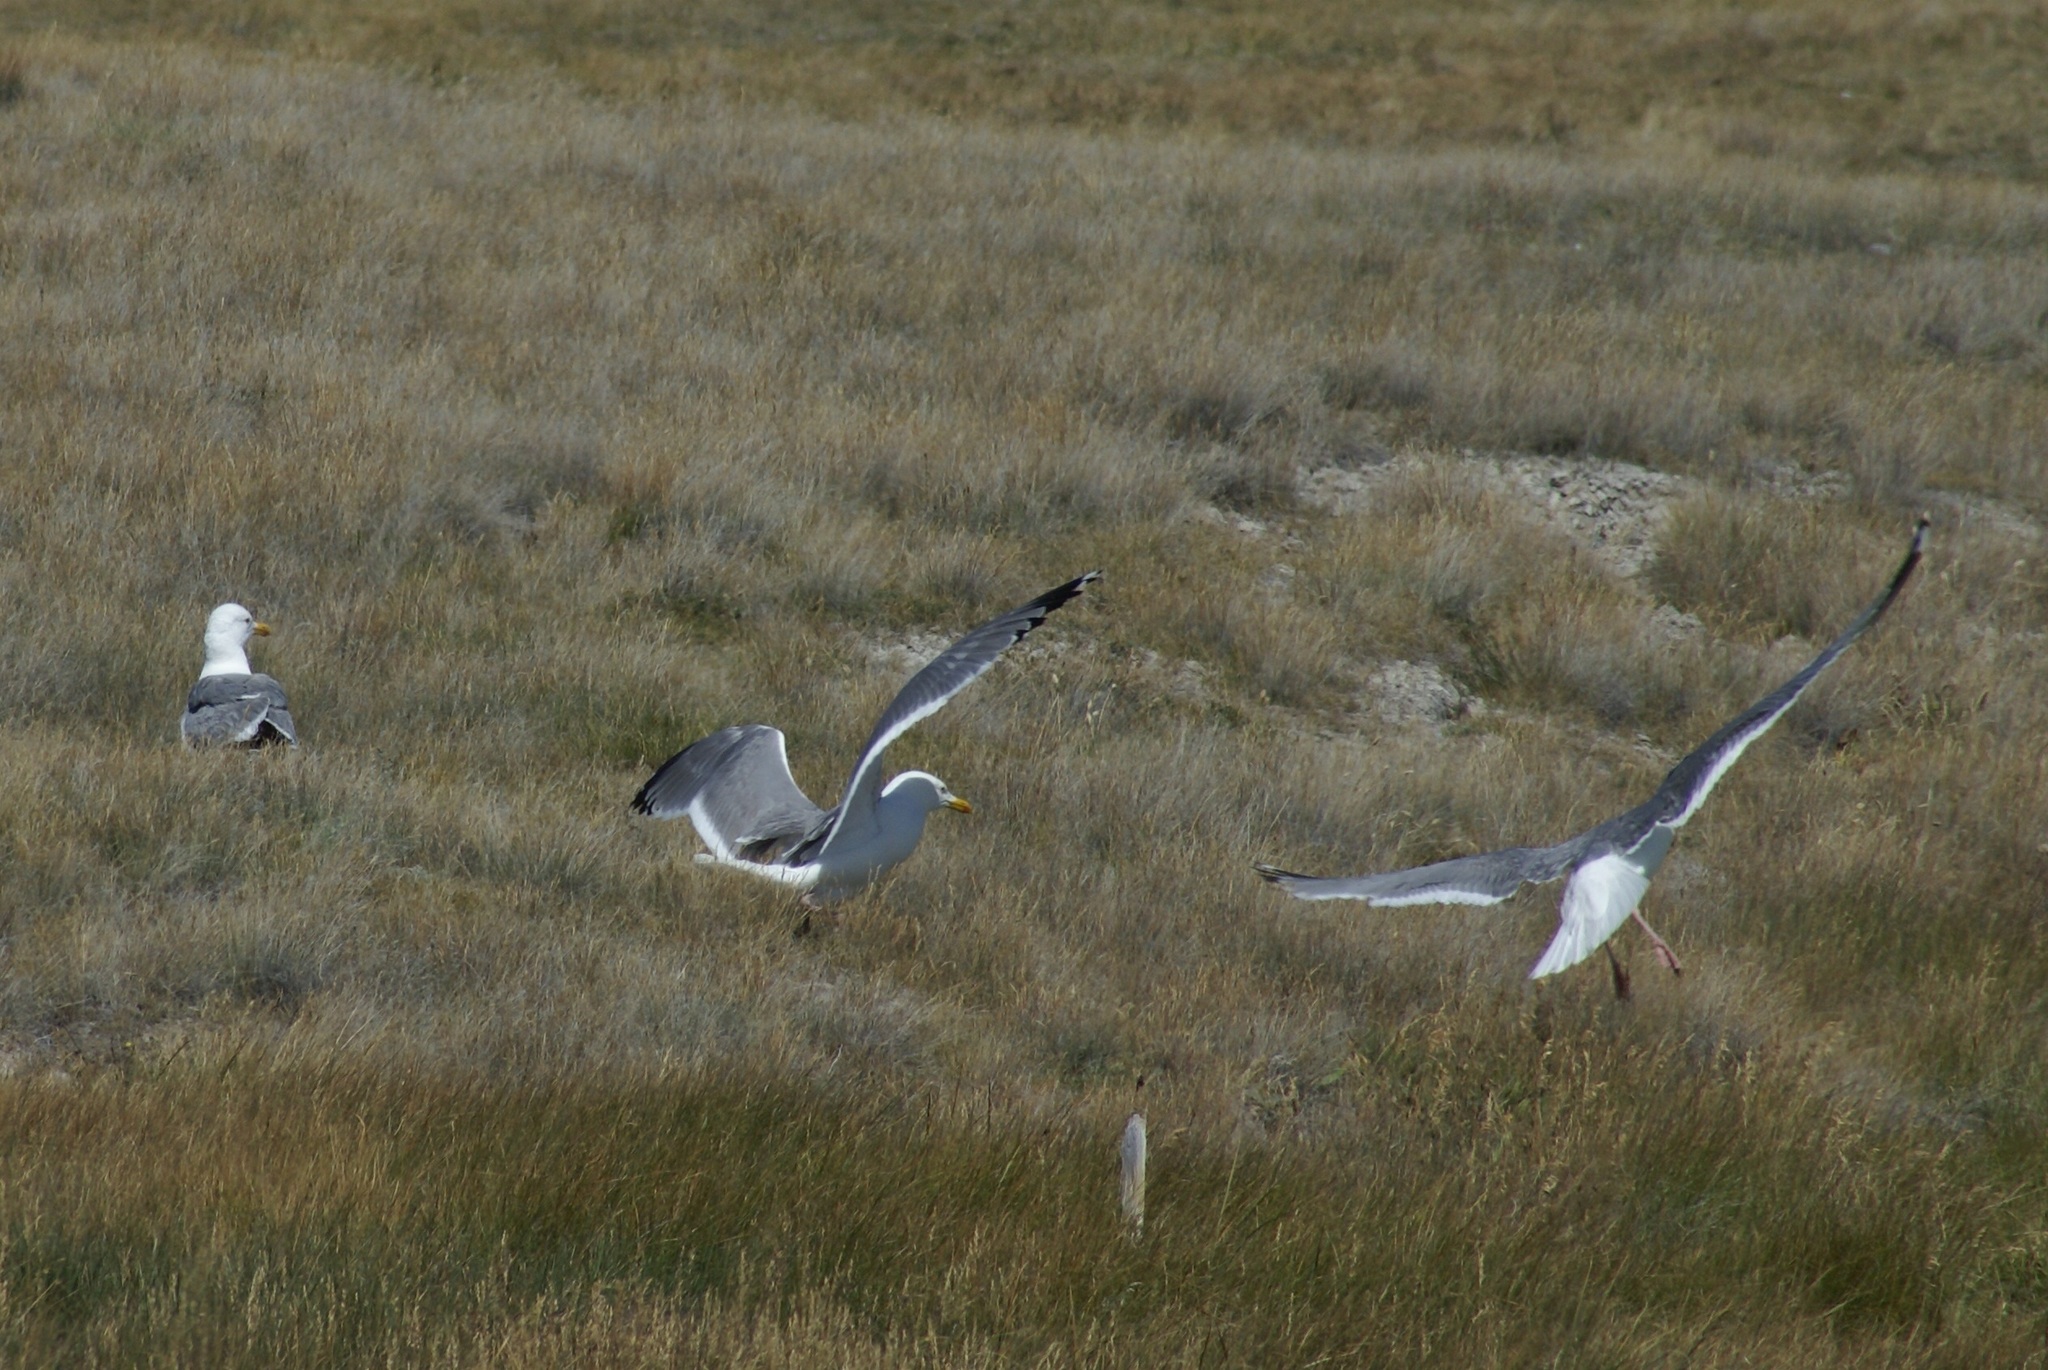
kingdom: Animalia
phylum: Chordata
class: Aves
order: Charadriiformes
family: Laridae
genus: Larus
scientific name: Larus vegae
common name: Vega gull
